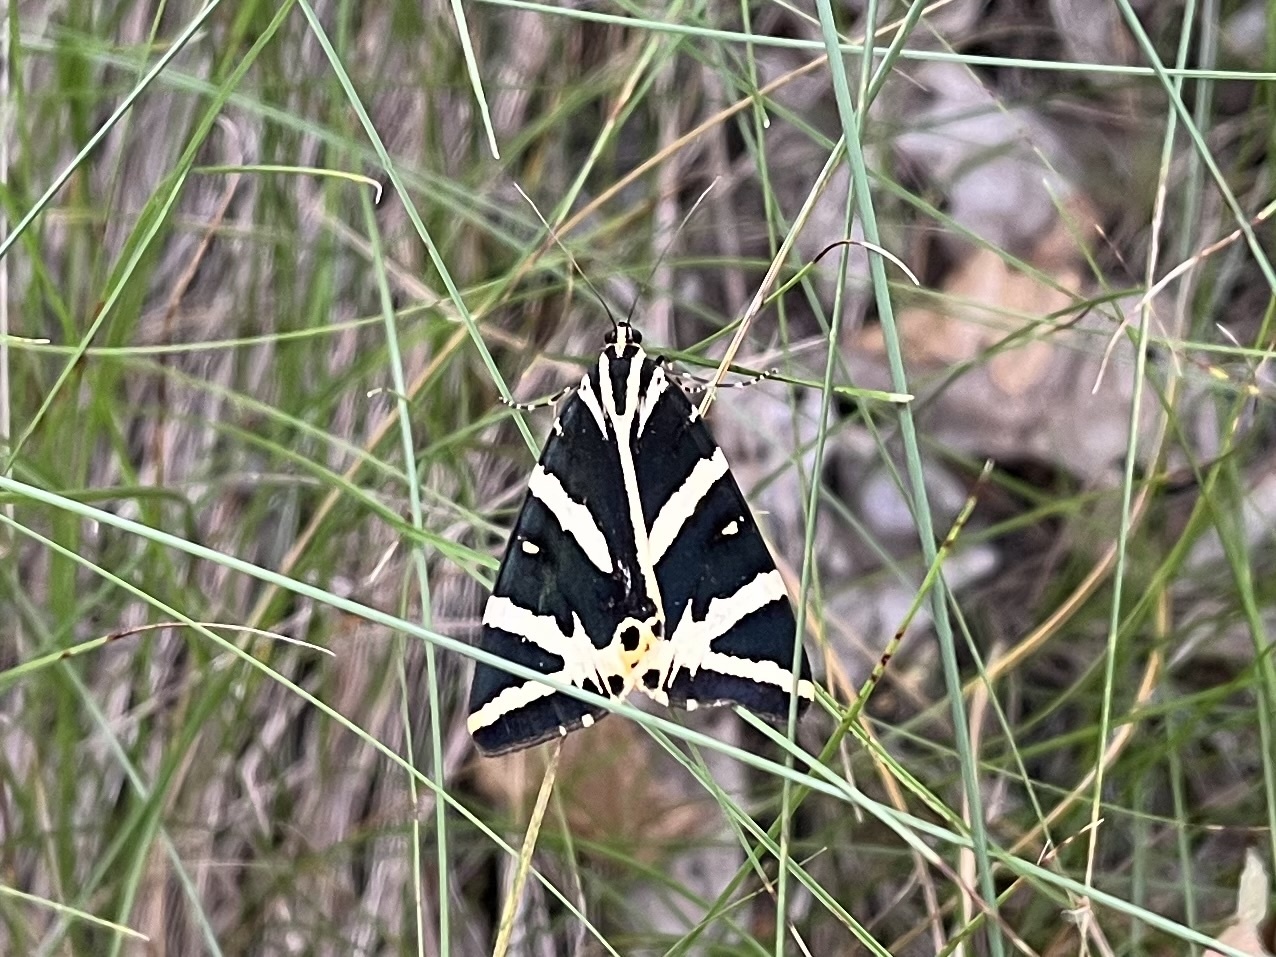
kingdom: Animalia
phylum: Arthropoda
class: Insecta
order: Lepidoptera
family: Erebidae
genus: Euplagia
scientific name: Euplagia quadripunctaria
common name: Jersey tiger
